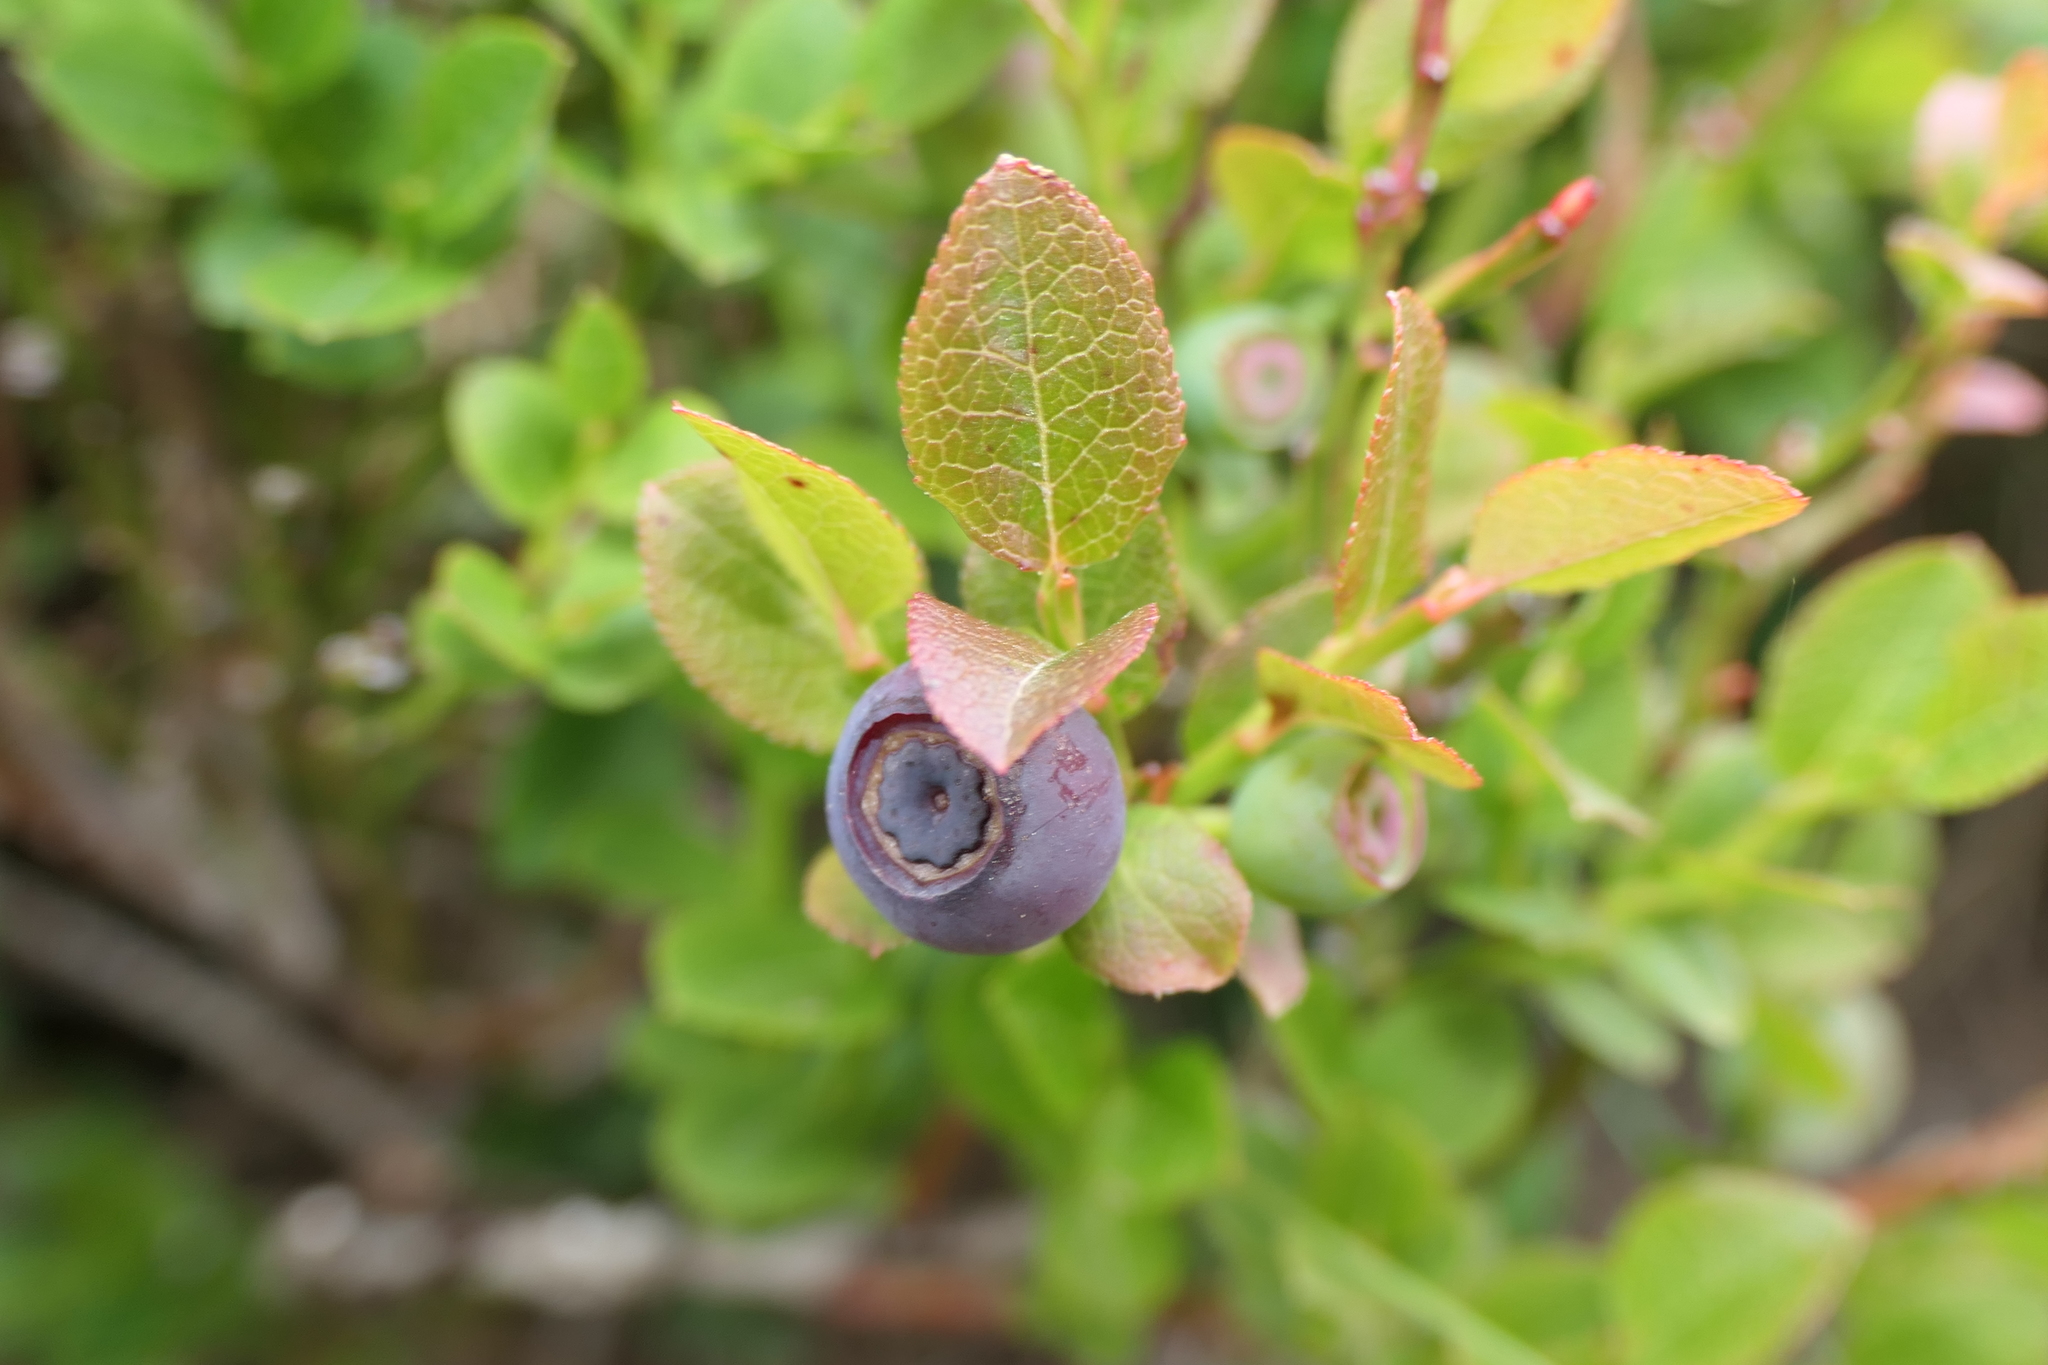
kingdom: Plantae
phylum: Tracheophyta
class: Magnoliopsida
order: Ericales
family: Ericaceae
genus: Vaccinium
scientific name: Vaccinium myrtillus
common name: Bilberry
